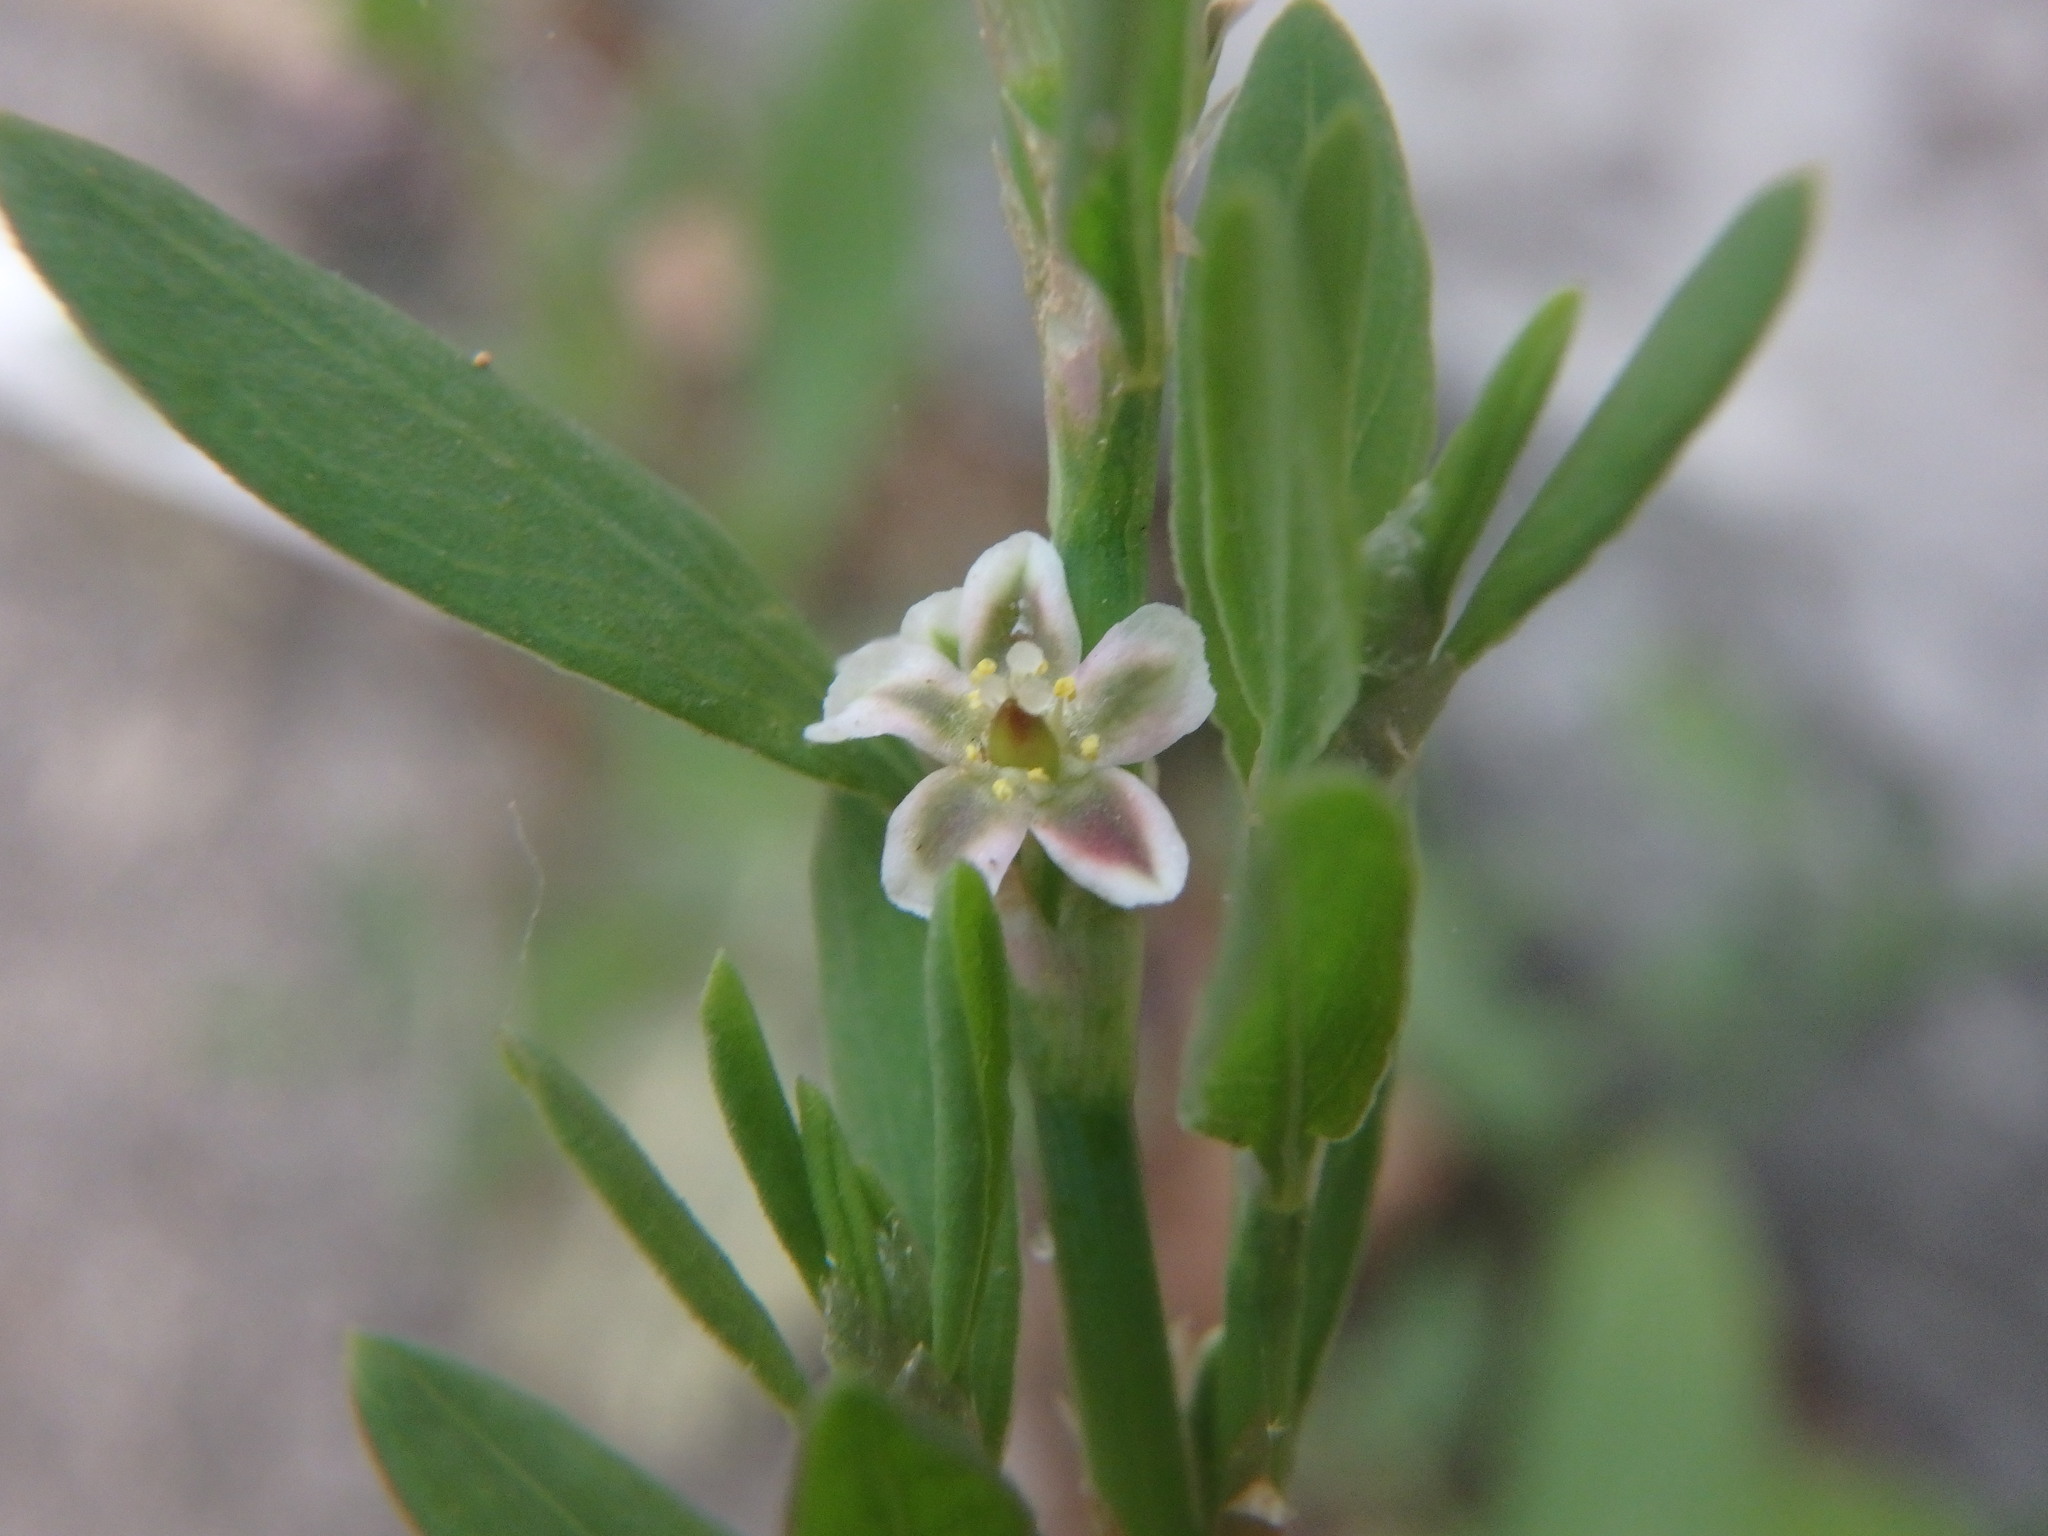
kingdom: Plantae
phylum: Tracheophyta
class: Magnoliopsida
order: Caryophyllales
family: Polygonaceae
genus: Polygonum
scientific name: Polygonum aviculare
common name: Prostrate knotweed
